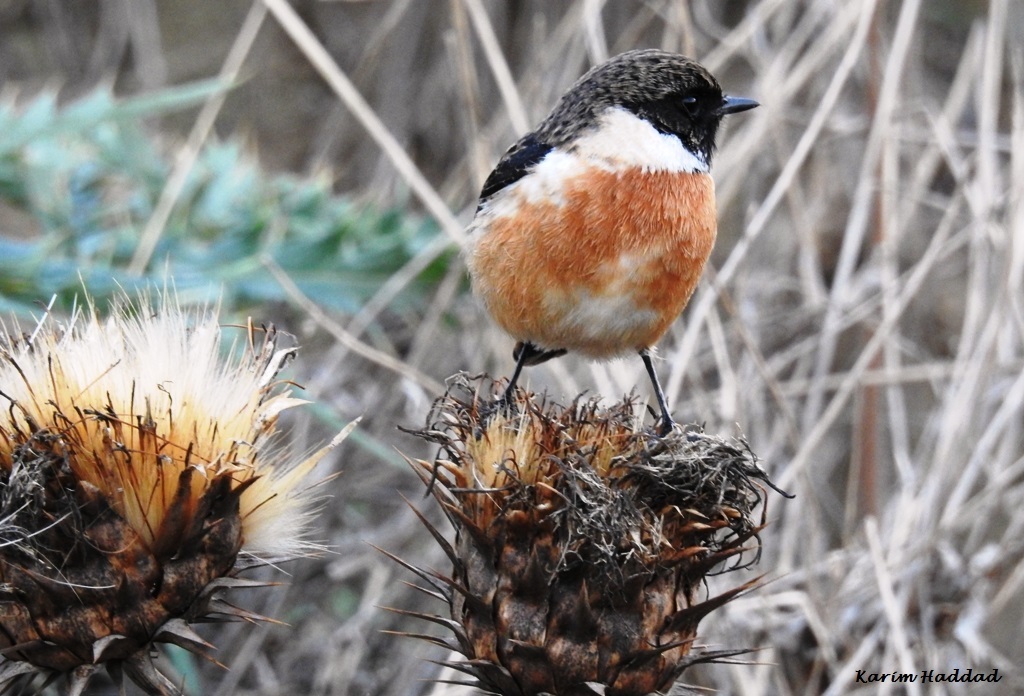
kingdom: Animalia
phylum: Chordata
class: Aves
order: Passeriformes
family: Muscicapidae
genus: Saxicola
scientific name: Saxicola rubicola
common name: European stonechat
